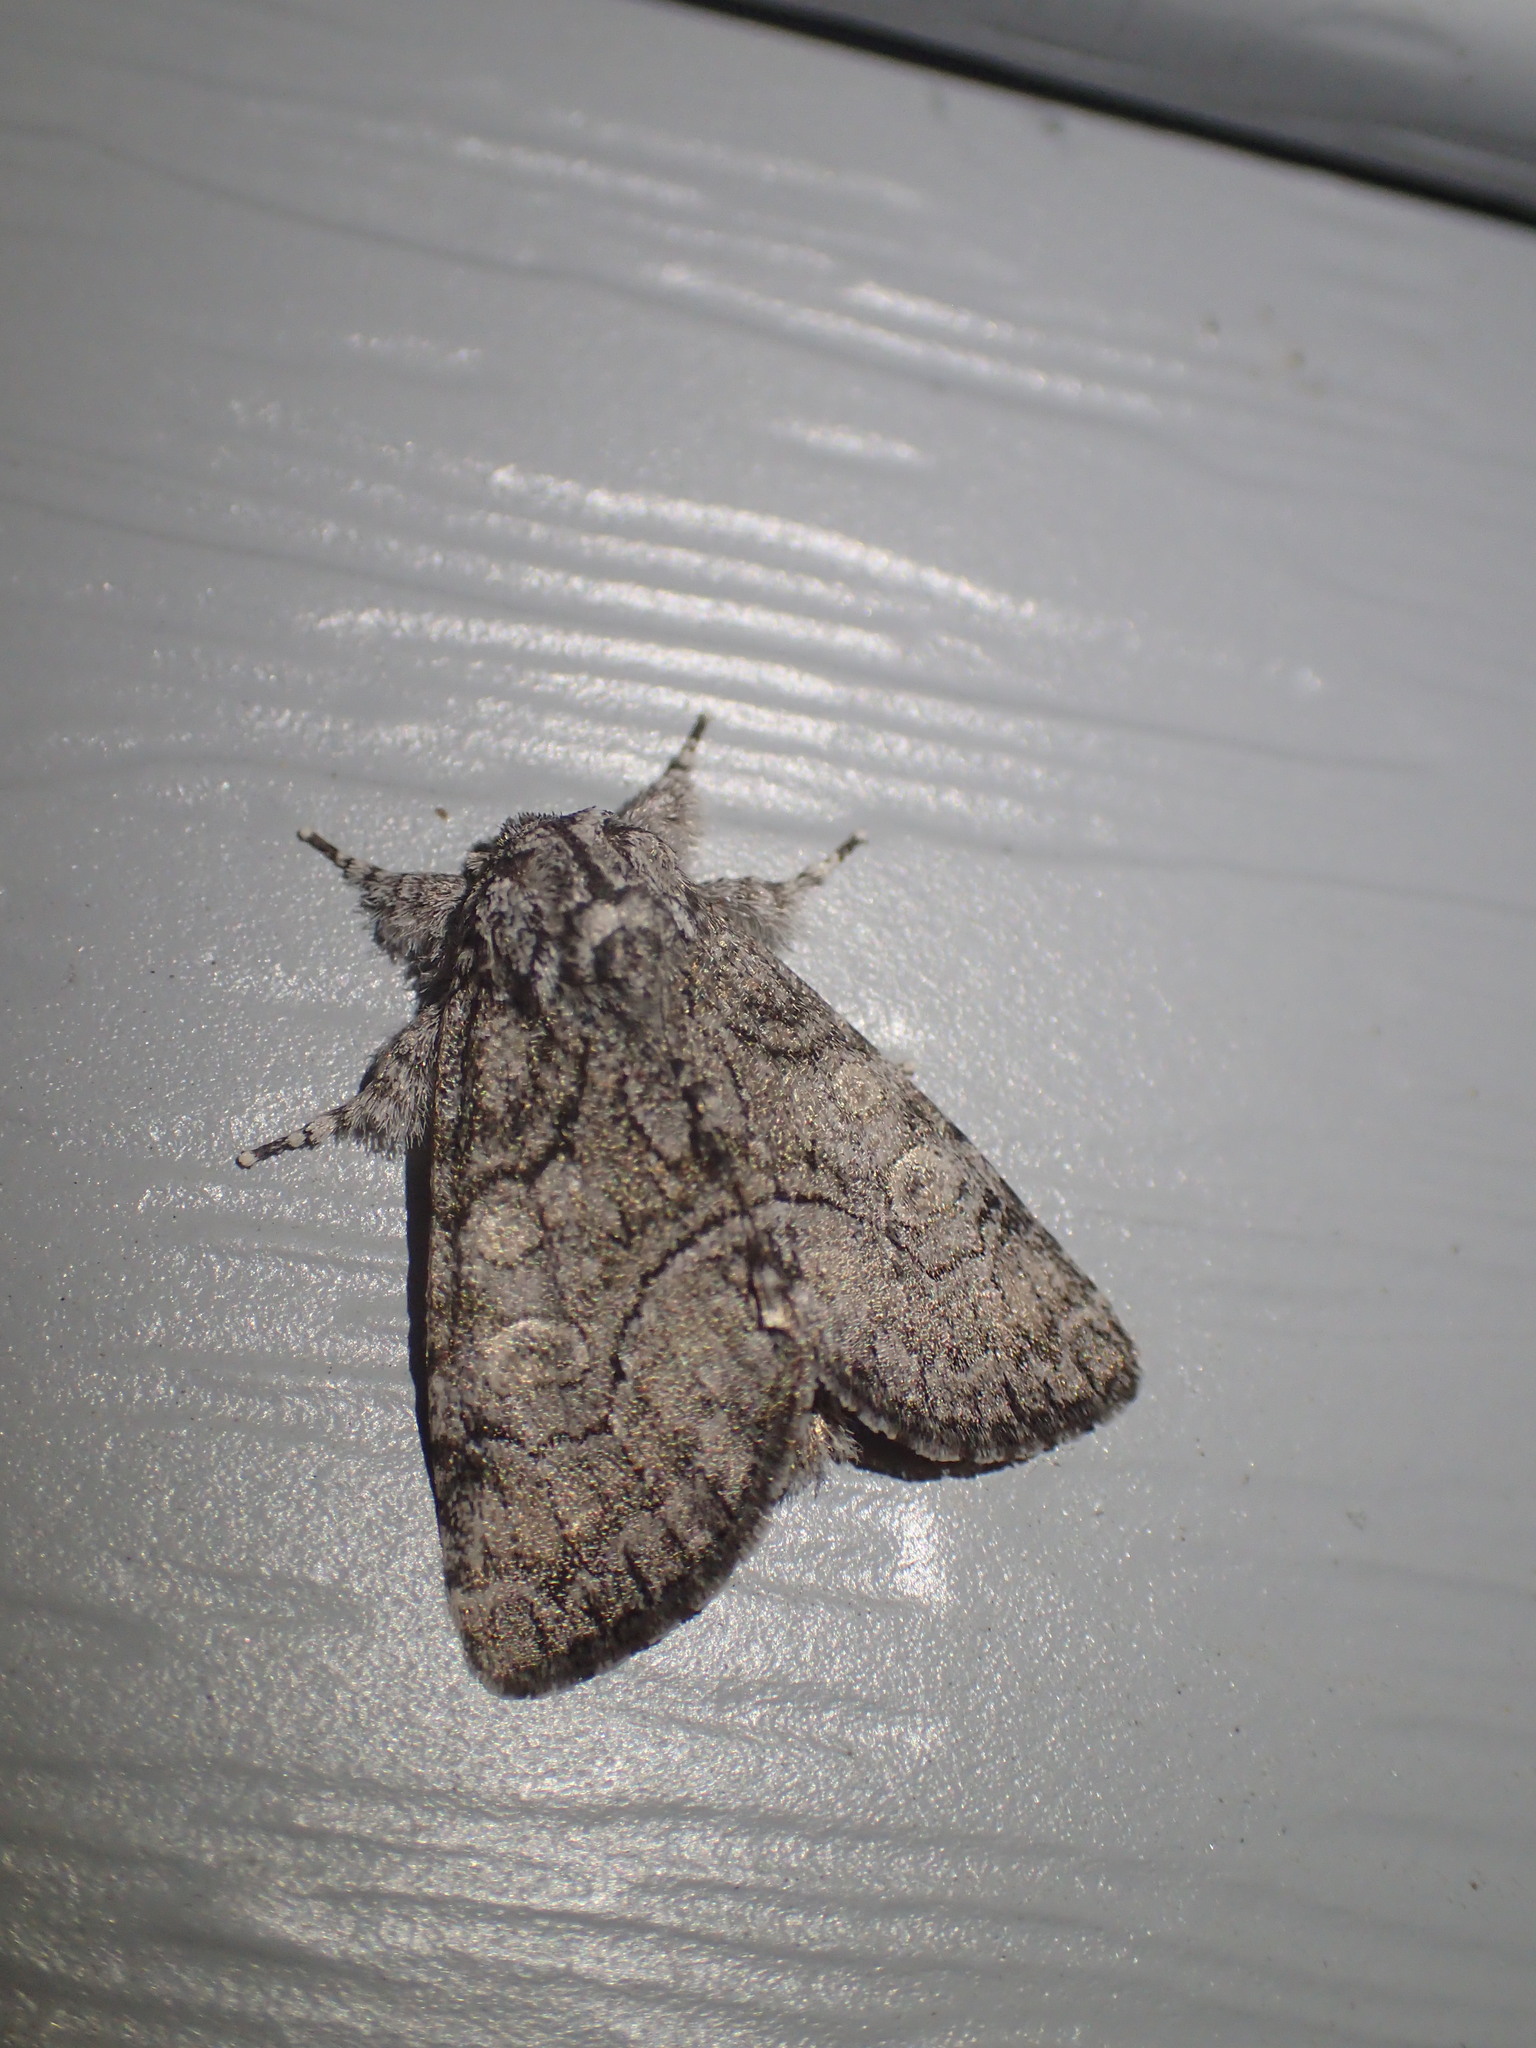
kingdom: Animalia
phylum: Arthropoda
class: Insecta
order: Lepidoptera
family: Noctuidae
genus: Raphia
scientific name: Raphia frater
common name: Brother
